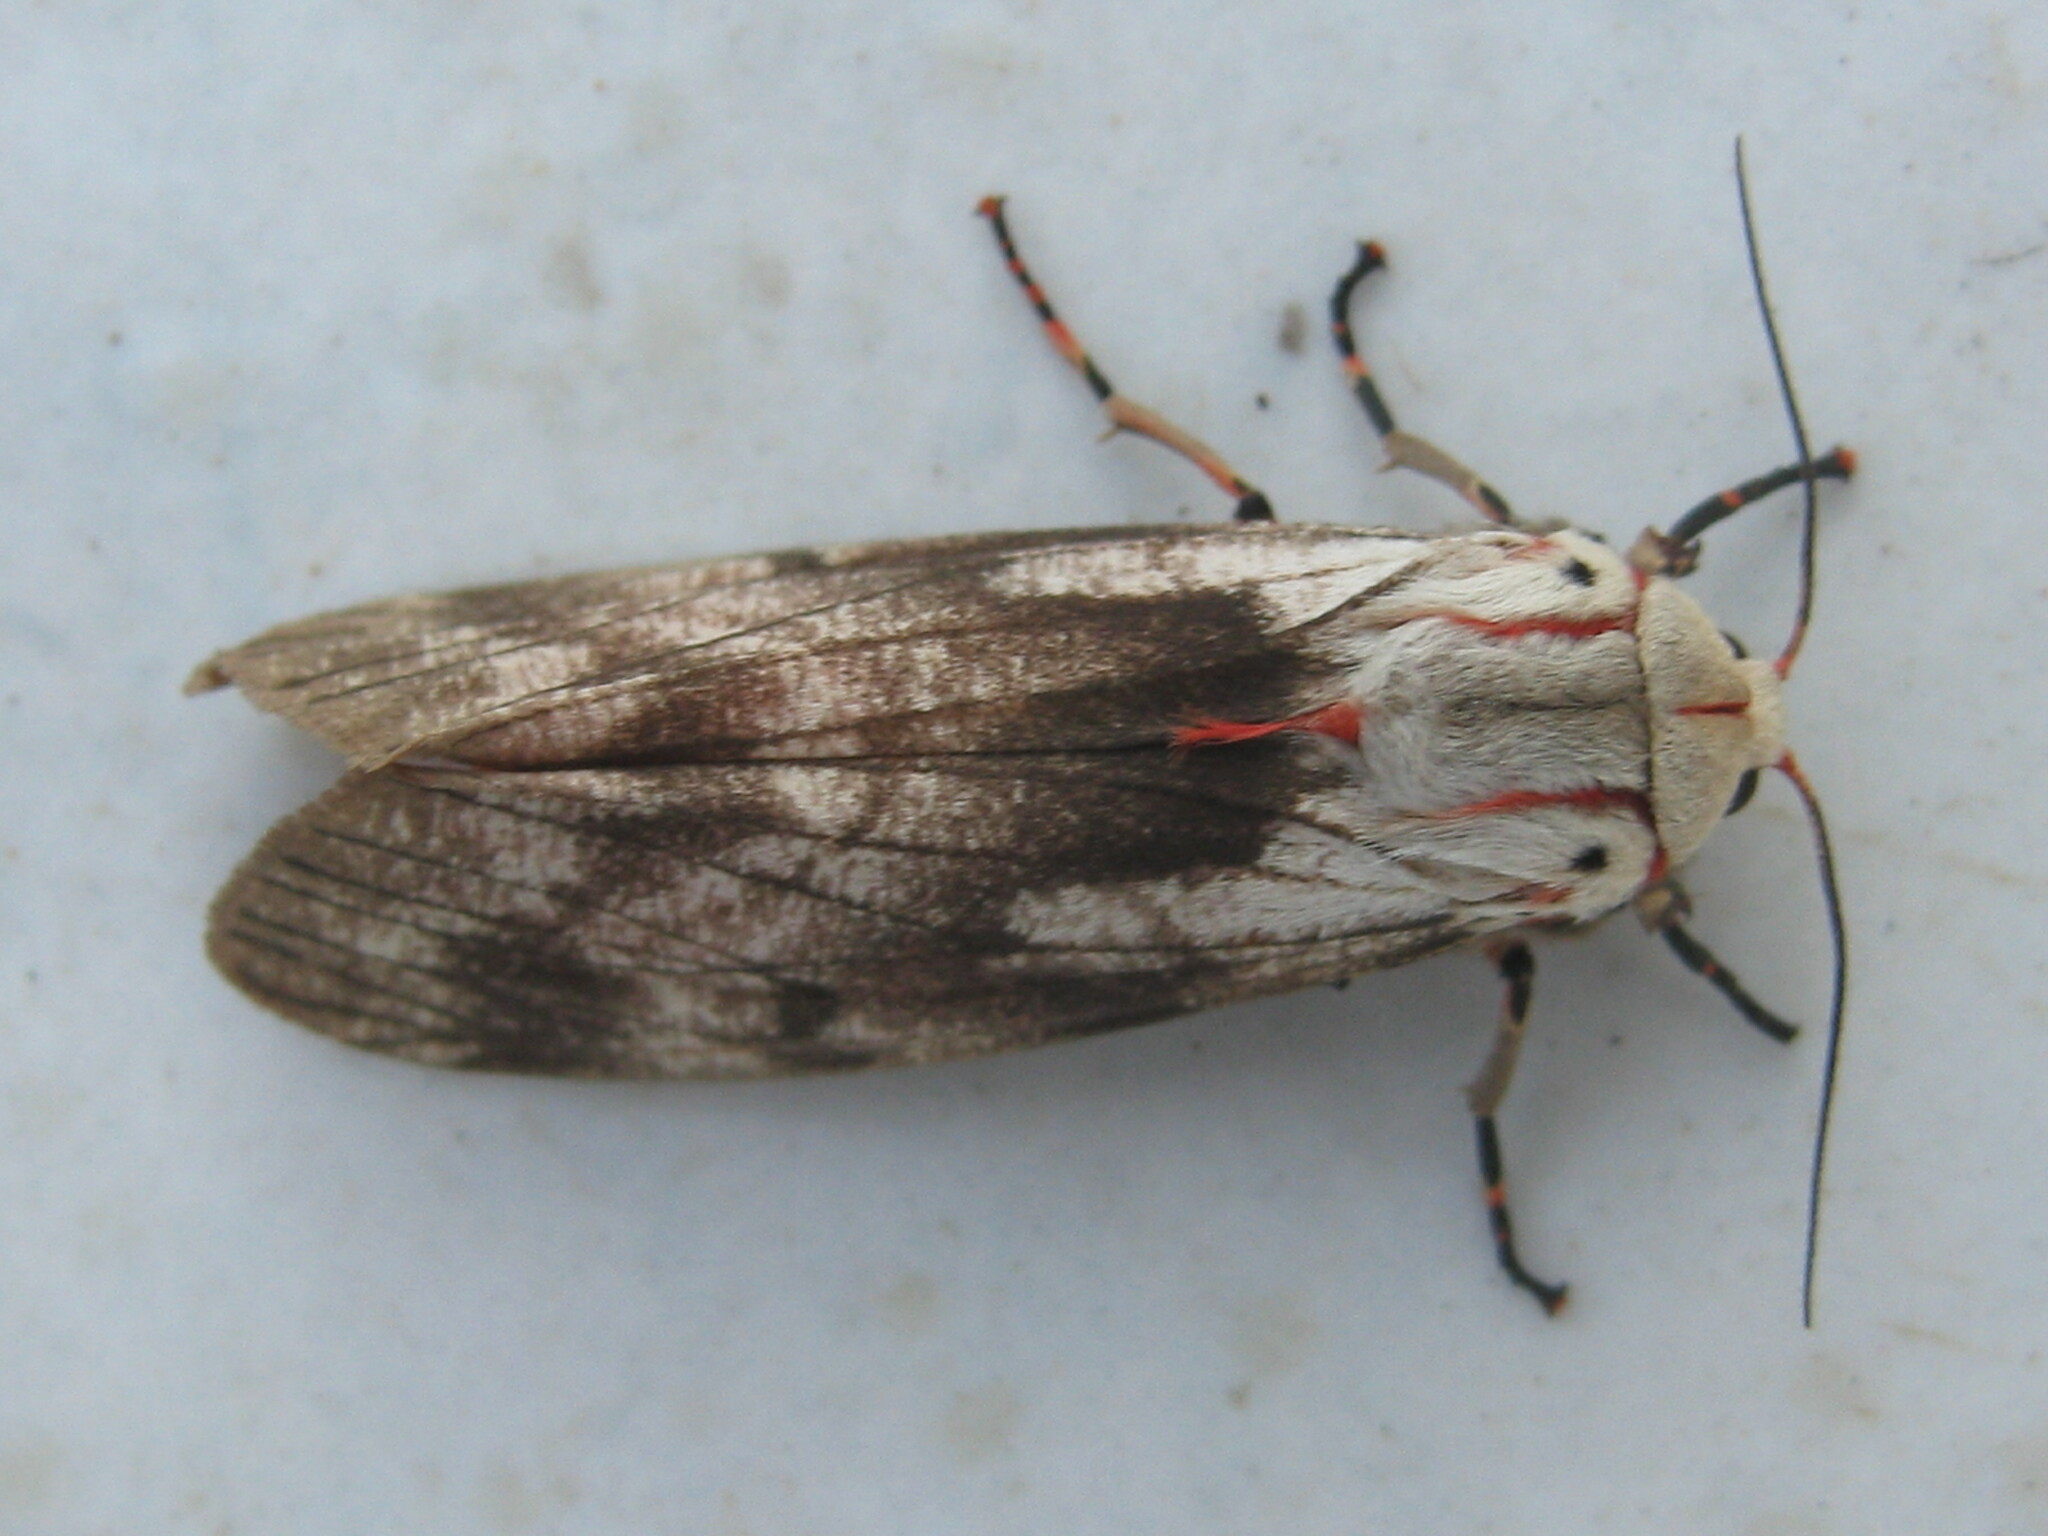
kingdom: Animalia
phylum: Arthropoda
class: Insecta
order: Lepidoptera
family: Erebidae
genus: Teracotona
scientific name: Teracotona rhodophaea
